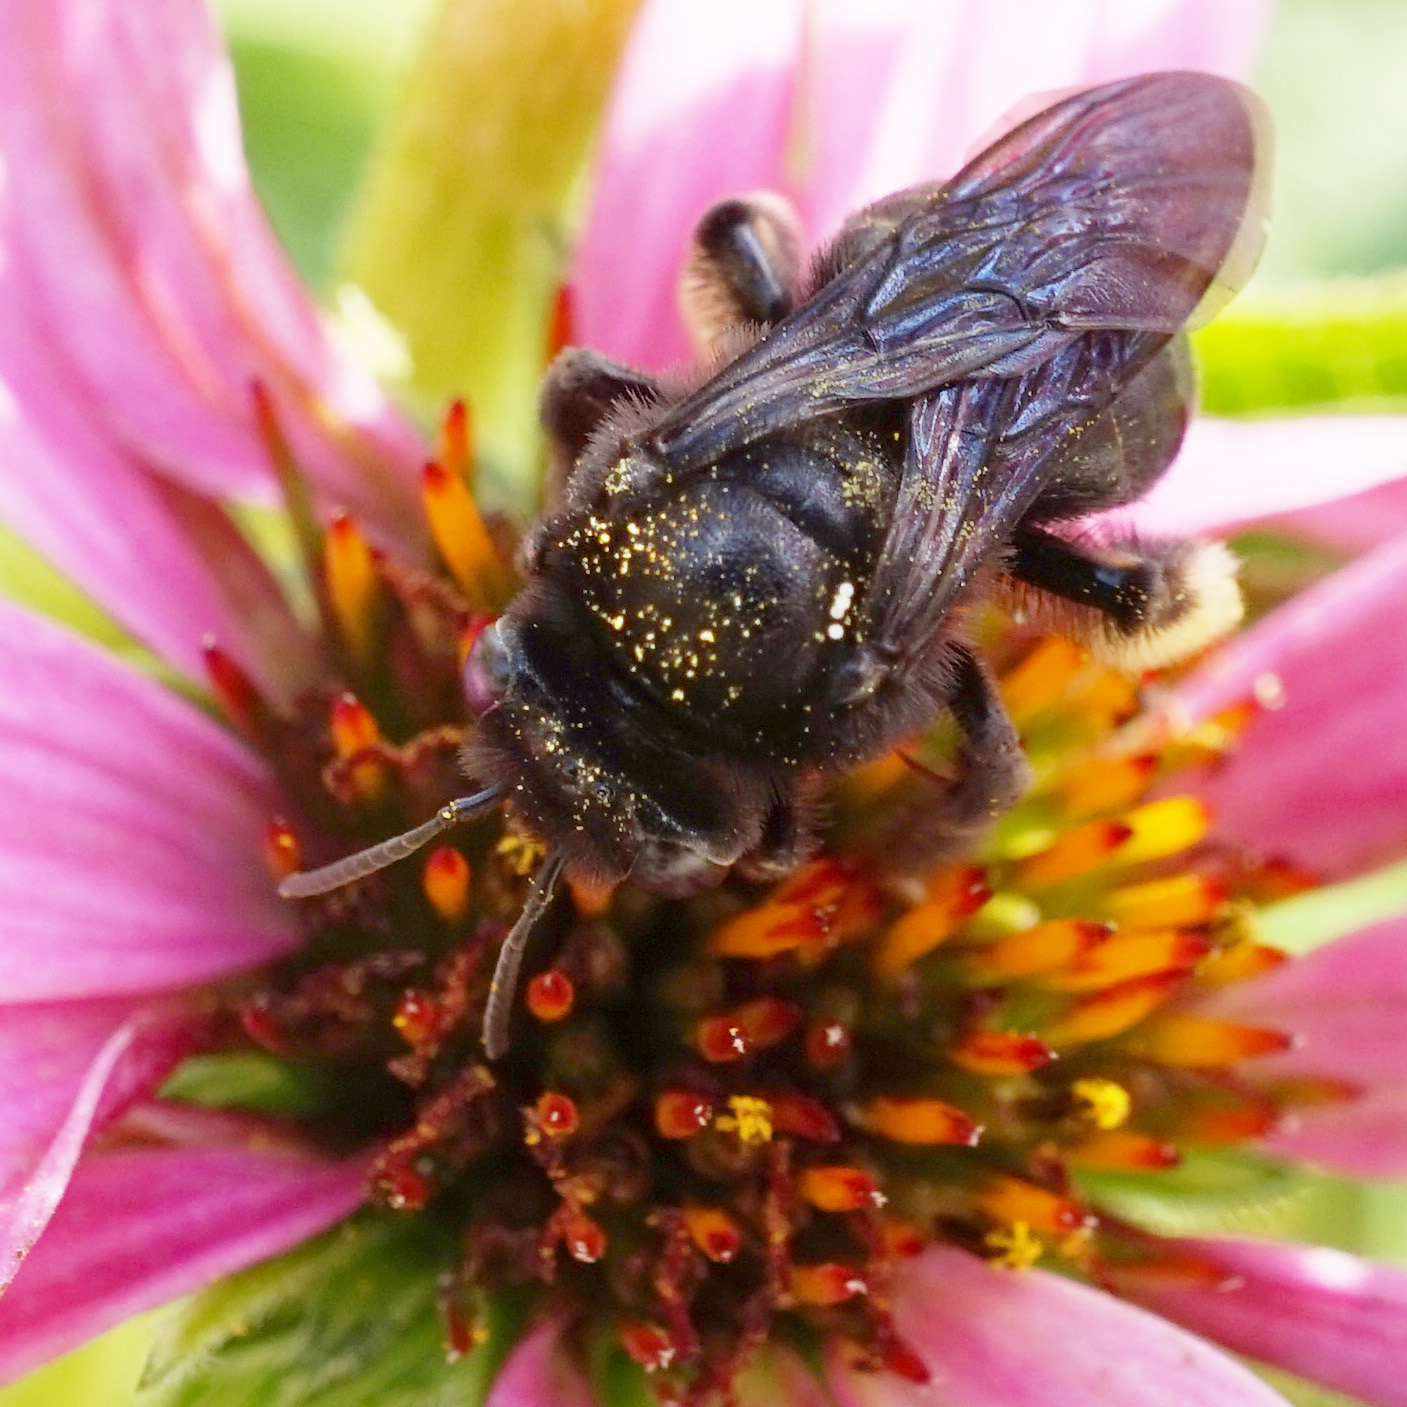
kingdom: Animalia
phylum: Arthropoda
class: Insecta
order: Hymenoptera
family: Apidae
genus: Melissodes
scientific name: Melissodes bimaculatus
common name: Two-spotted long-horned bee
